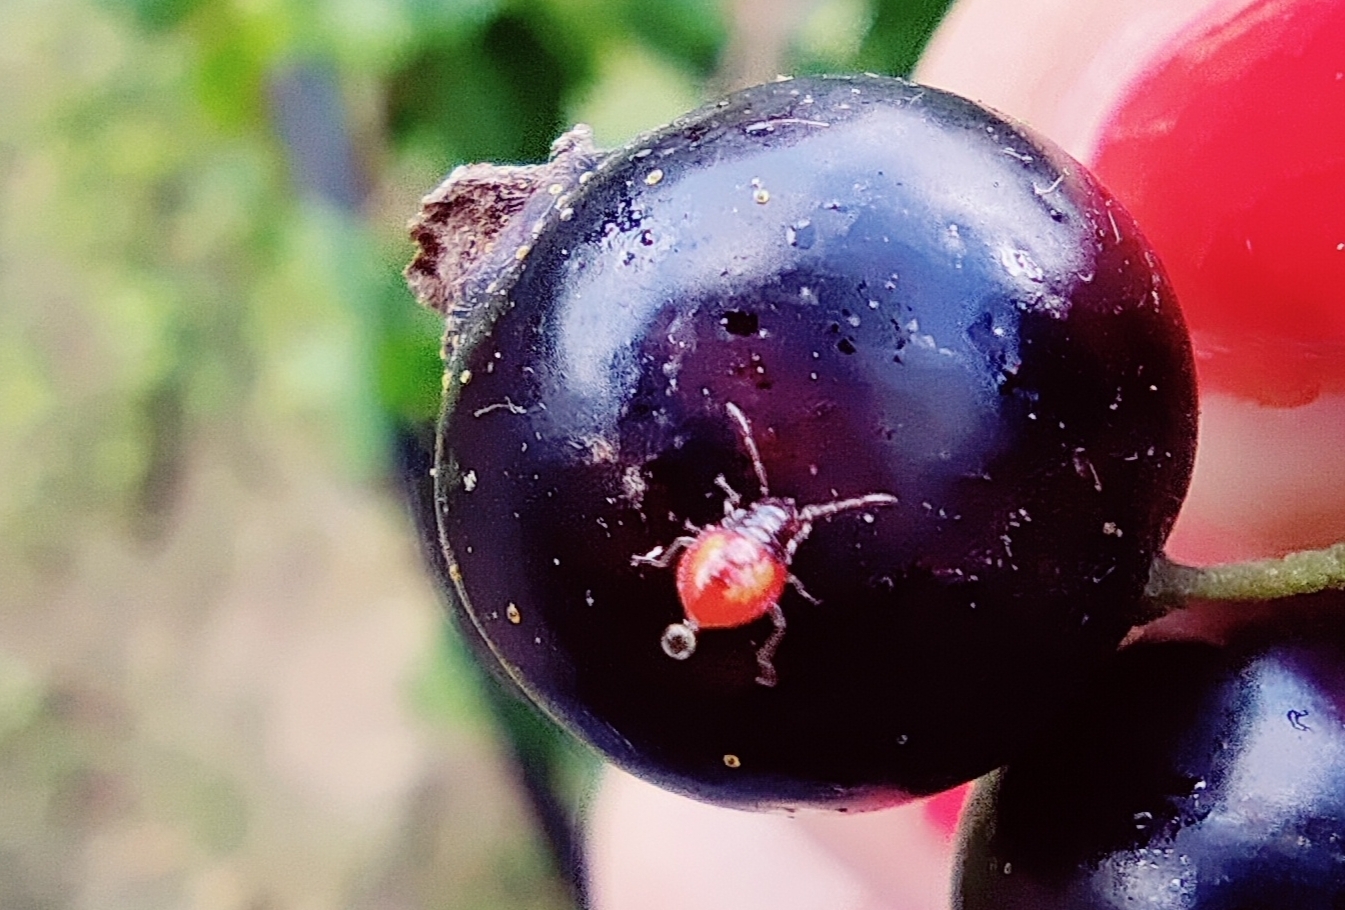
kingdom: Animalia
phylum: Arthropoda
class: Insecta
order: Hemiptera
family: Acanthosomatidae
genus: Elasmucha
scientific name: Elasmucha ferrugata
